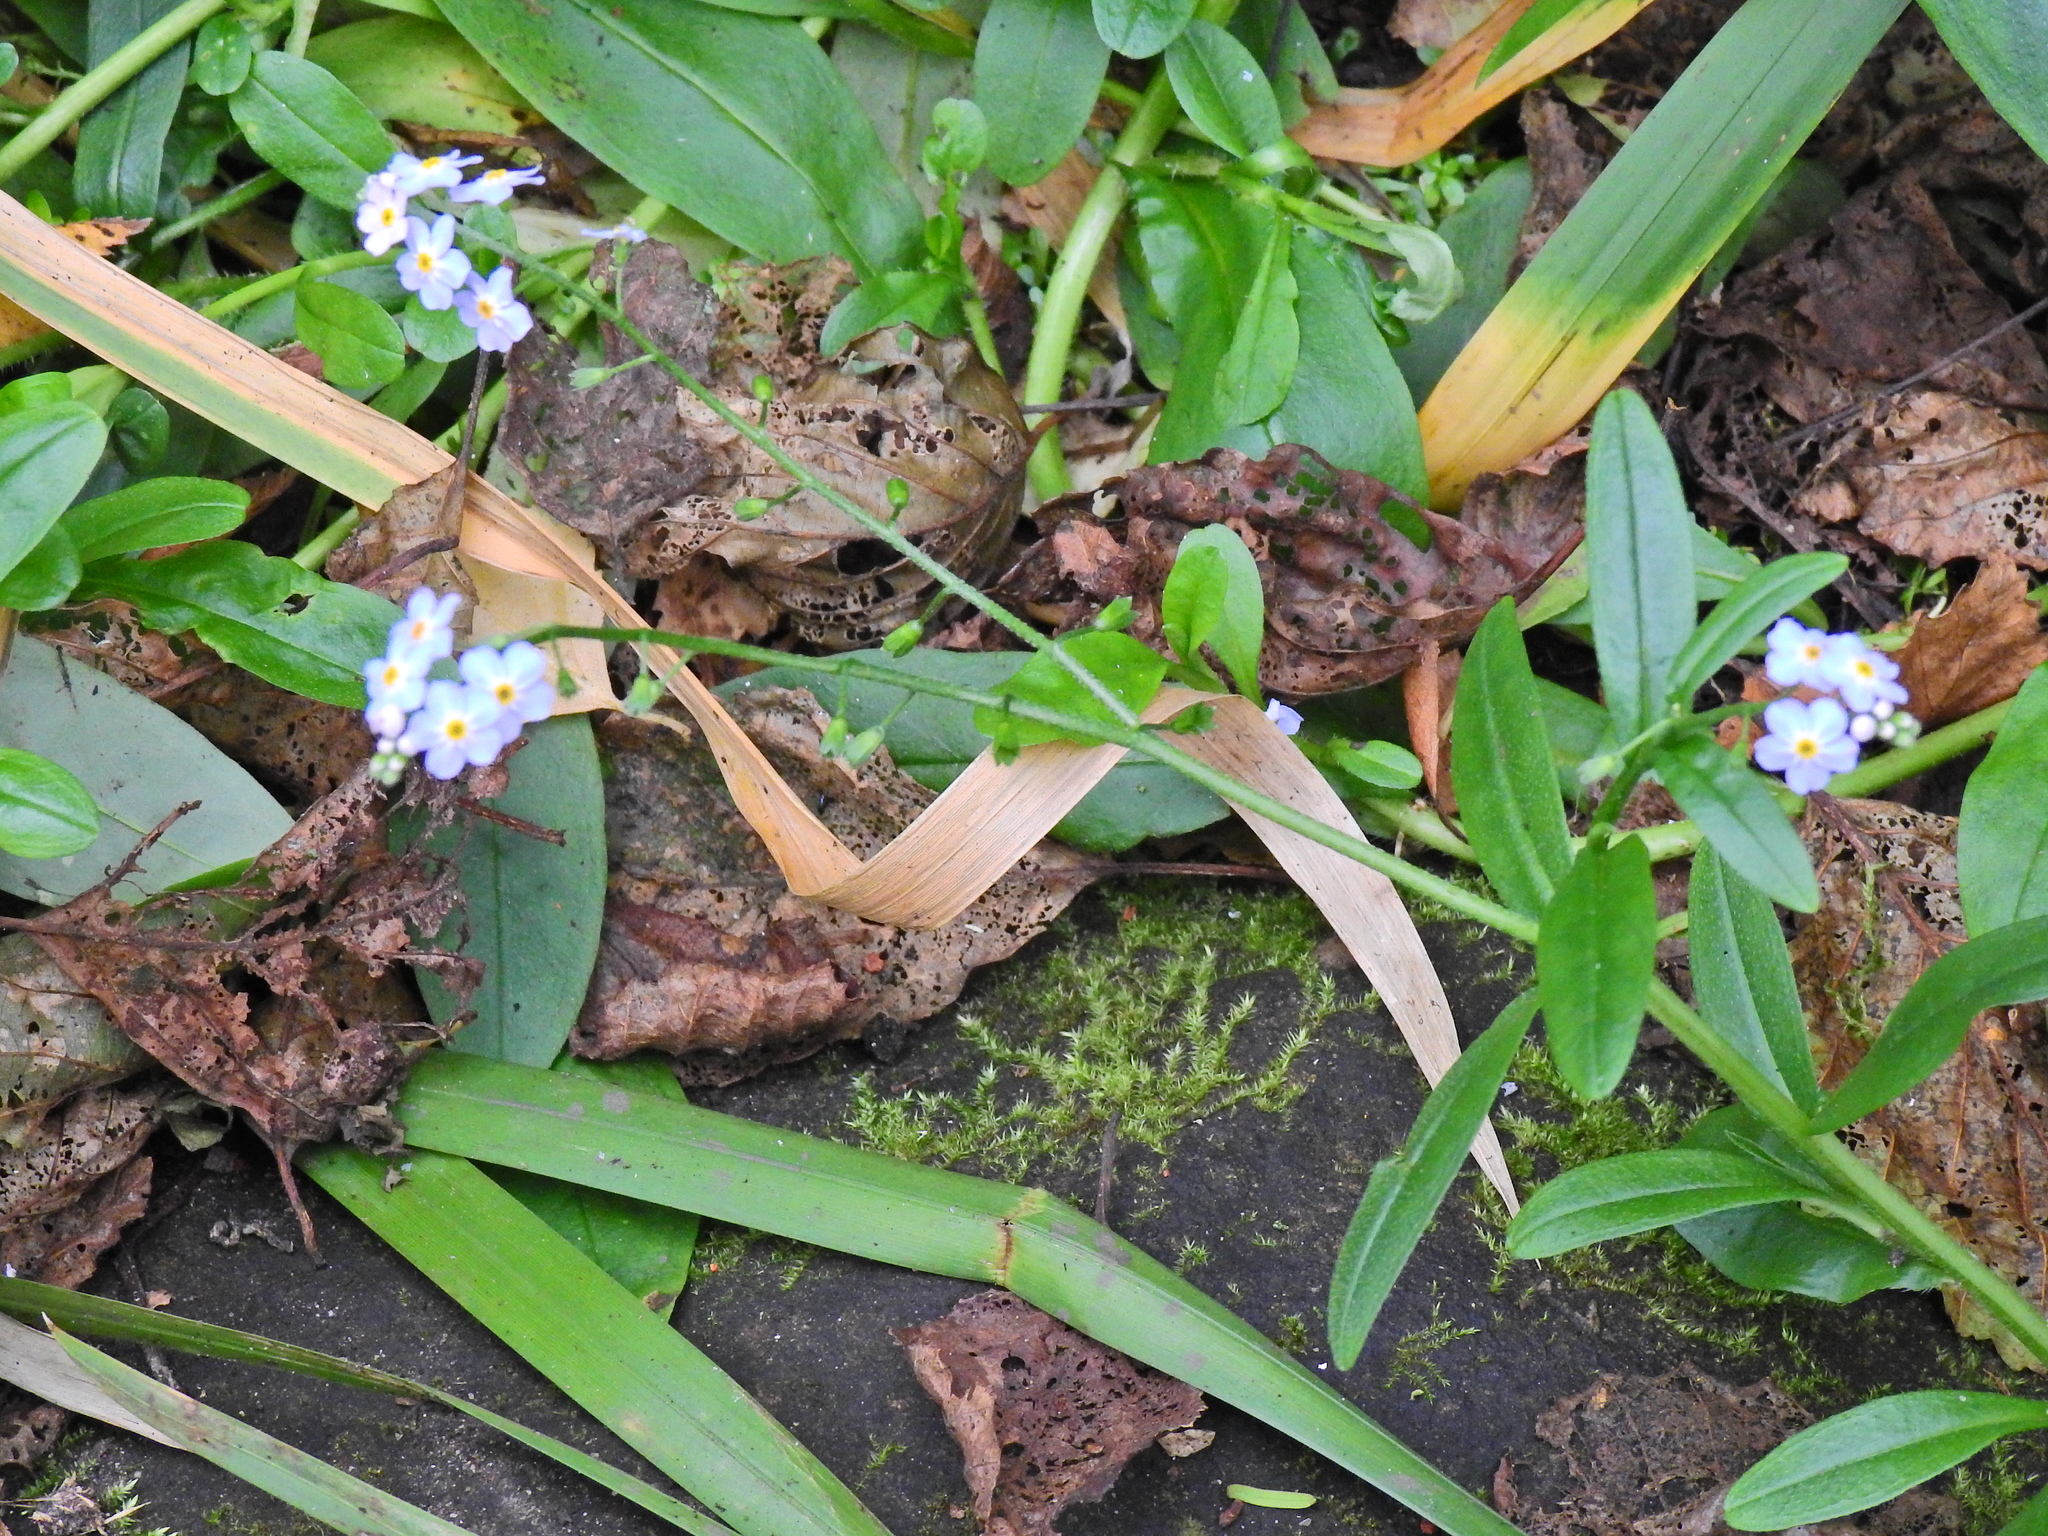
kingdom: Plantae
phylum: Tracheophyta
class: Magnoliopsida
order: Boraginales
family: Boraginaceae
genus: Myosotis
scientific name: Myosotis scorpioides
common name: Water forget-me-not
